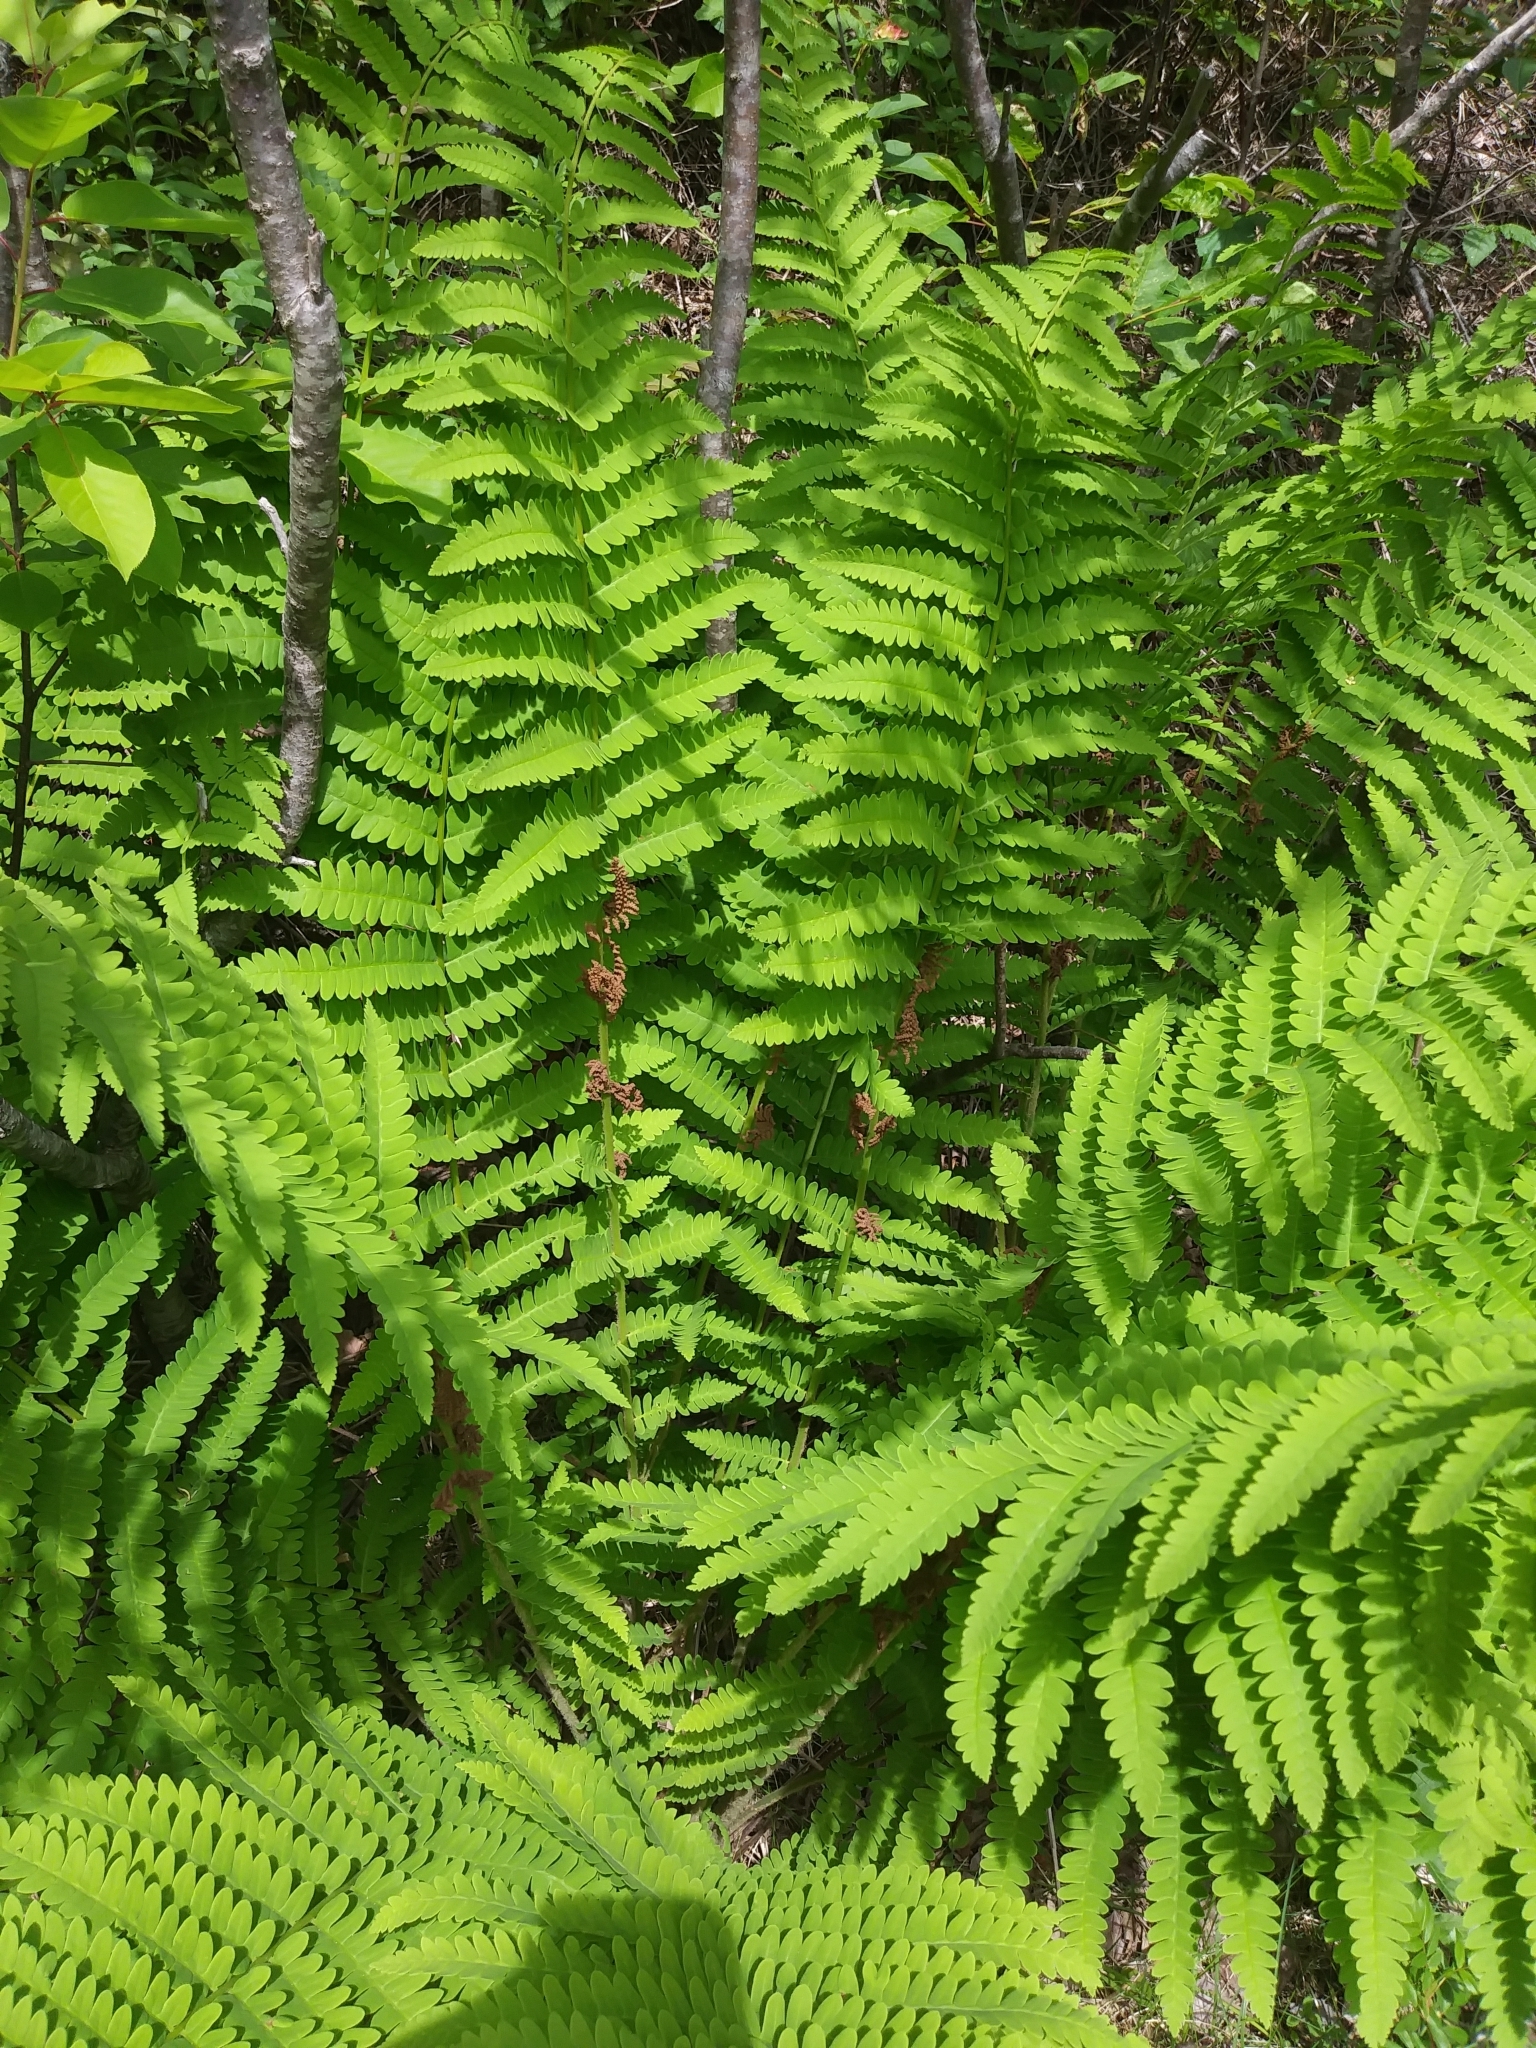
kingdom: Plantae
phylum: Tracheophyta
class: Polypodiopsida
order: Osmundales
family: Osmundaceae
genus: Claytosmunda
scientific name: Claytosmunda claytoniana
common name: Clayton's fern
